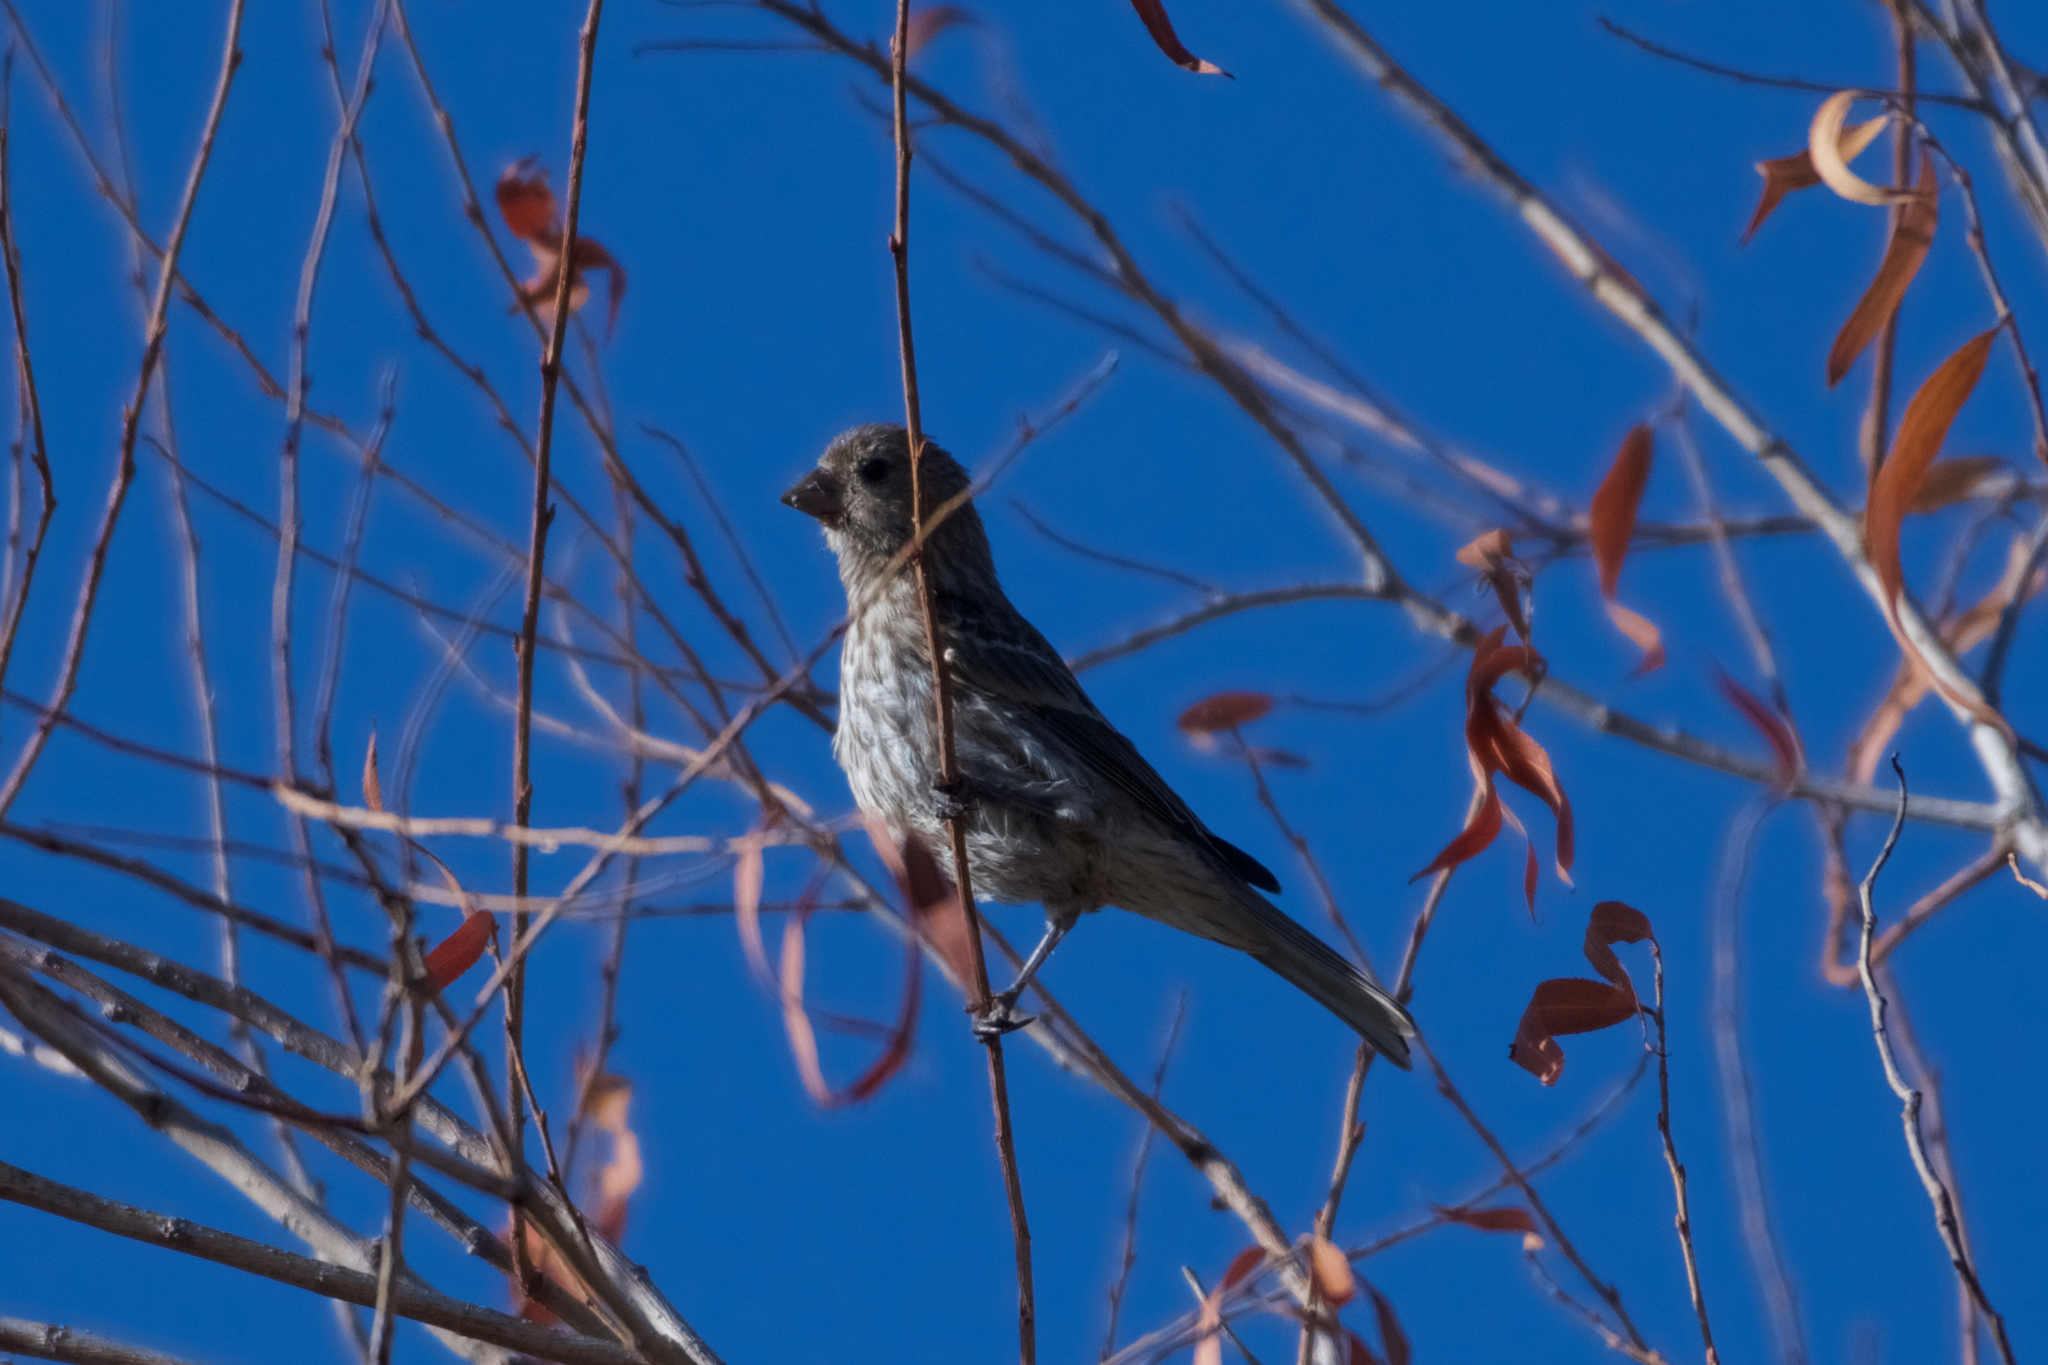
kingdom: Animalia
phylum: Chordata
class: Aves
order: Passeriformes
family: Fringillidae
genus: Haemorhous
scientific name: Haemorhous mexicanus
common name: House finch
